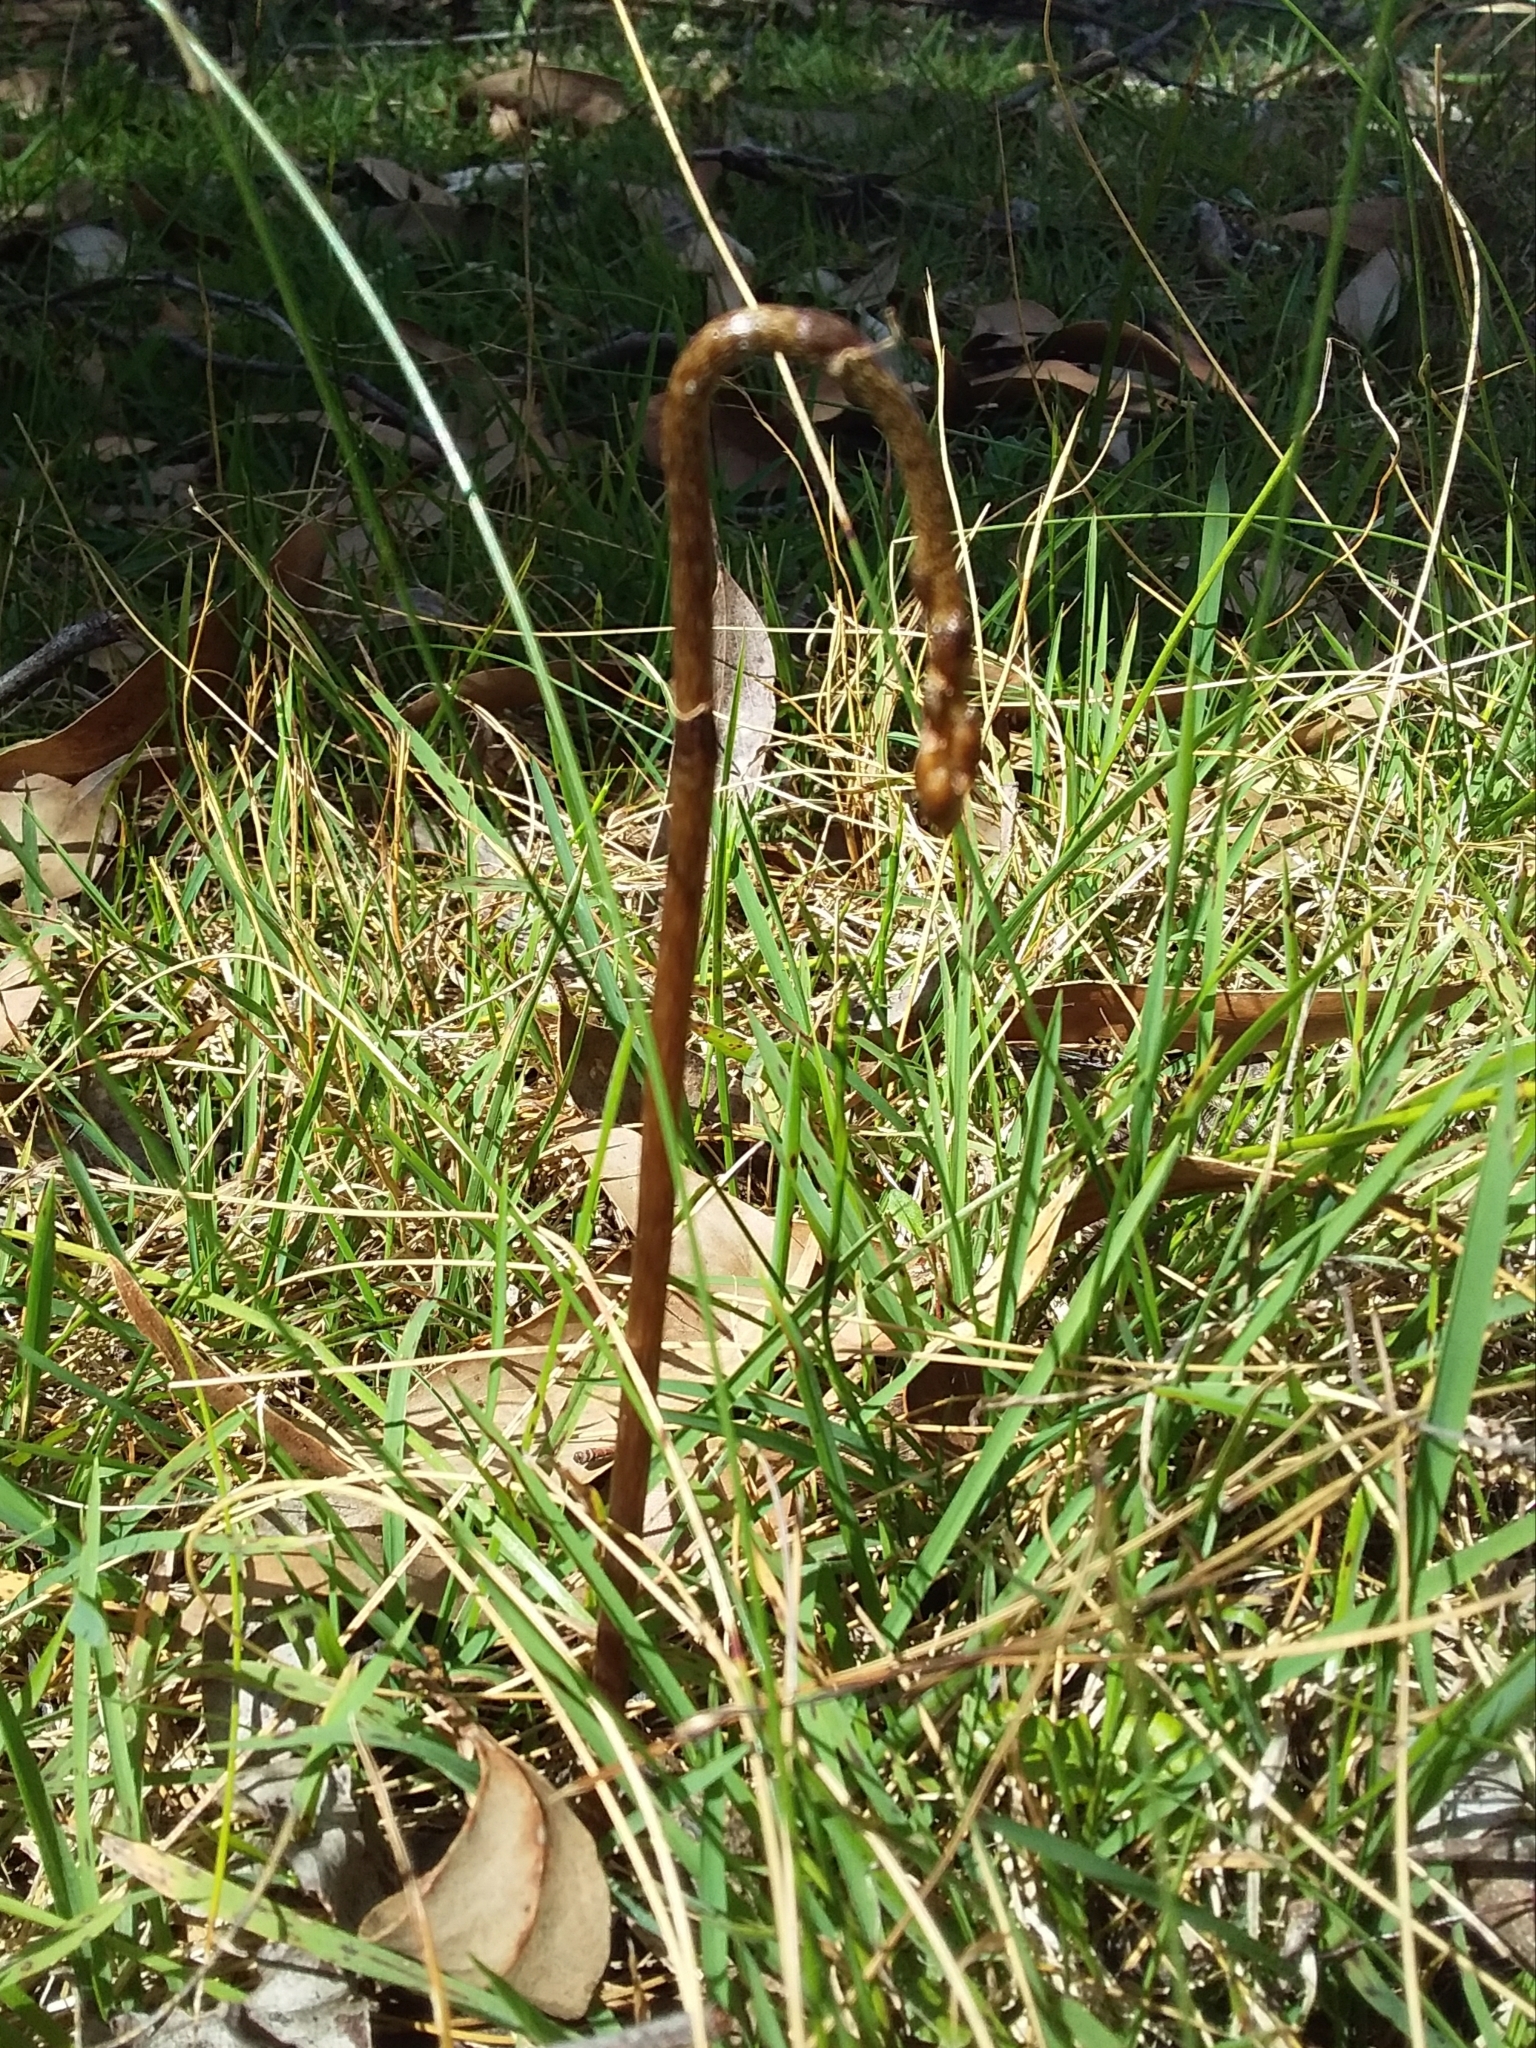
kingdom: Plantae
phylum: Tracheophyta
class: Liliopsida
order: Asparagales
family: Orchidaceae
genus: Gastrodia
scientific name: Gastrodia sesamoides
